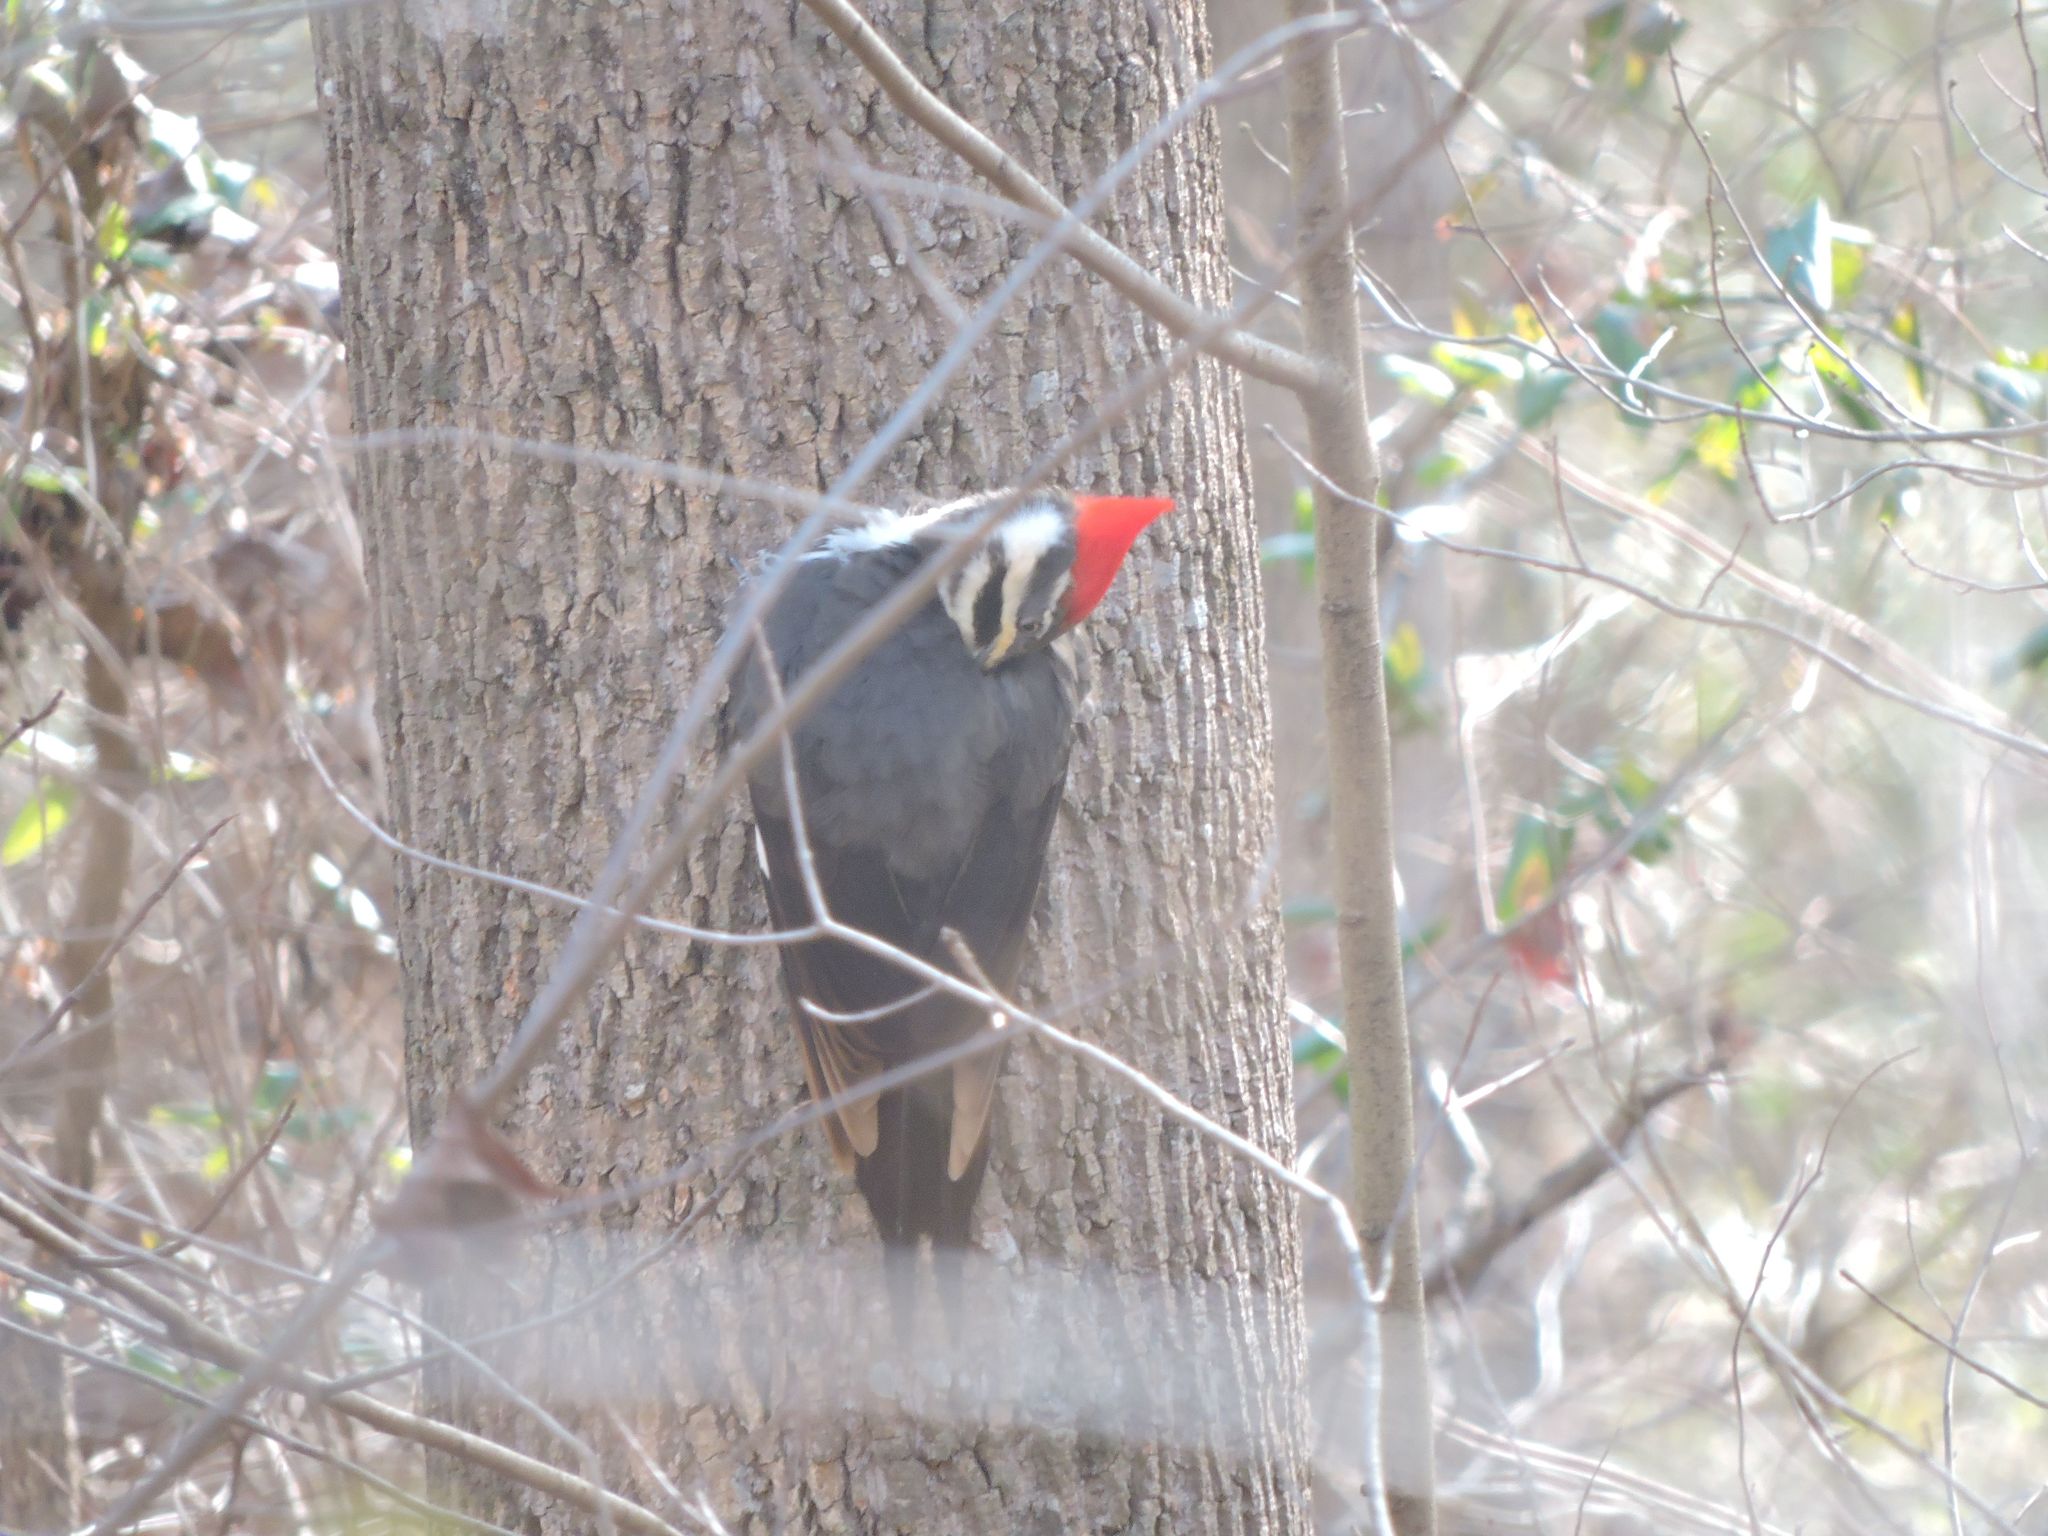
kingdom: Animalia
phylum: Chordata
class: Aves
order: Piciformes
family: Picidae
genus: Dryocopus
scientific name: Dryocopus pileatus
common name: Pileated woodpecker
